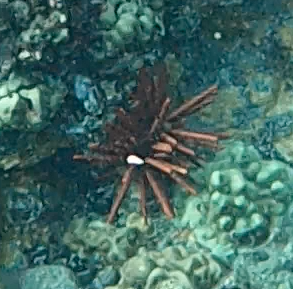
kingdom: Animalia
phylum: Echinodermata
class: Echinoidea
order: Camarodonta
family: Echinometridae
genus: Heterocentrotus
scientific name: Heterocentrotus mamillatus
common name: Slate pencil urchin
